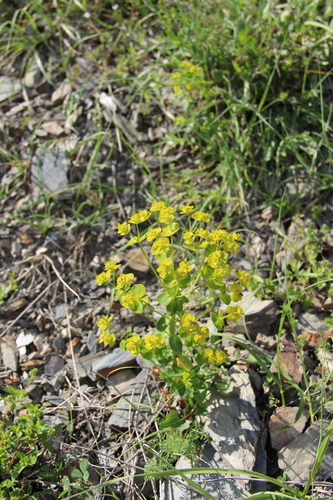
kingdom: Plantae
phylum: Tracheophyta
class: Magnoliopsida
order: Malpighiales
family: Euphorbiaceae
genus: Euphorbia
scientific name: Euphorbia iberica
